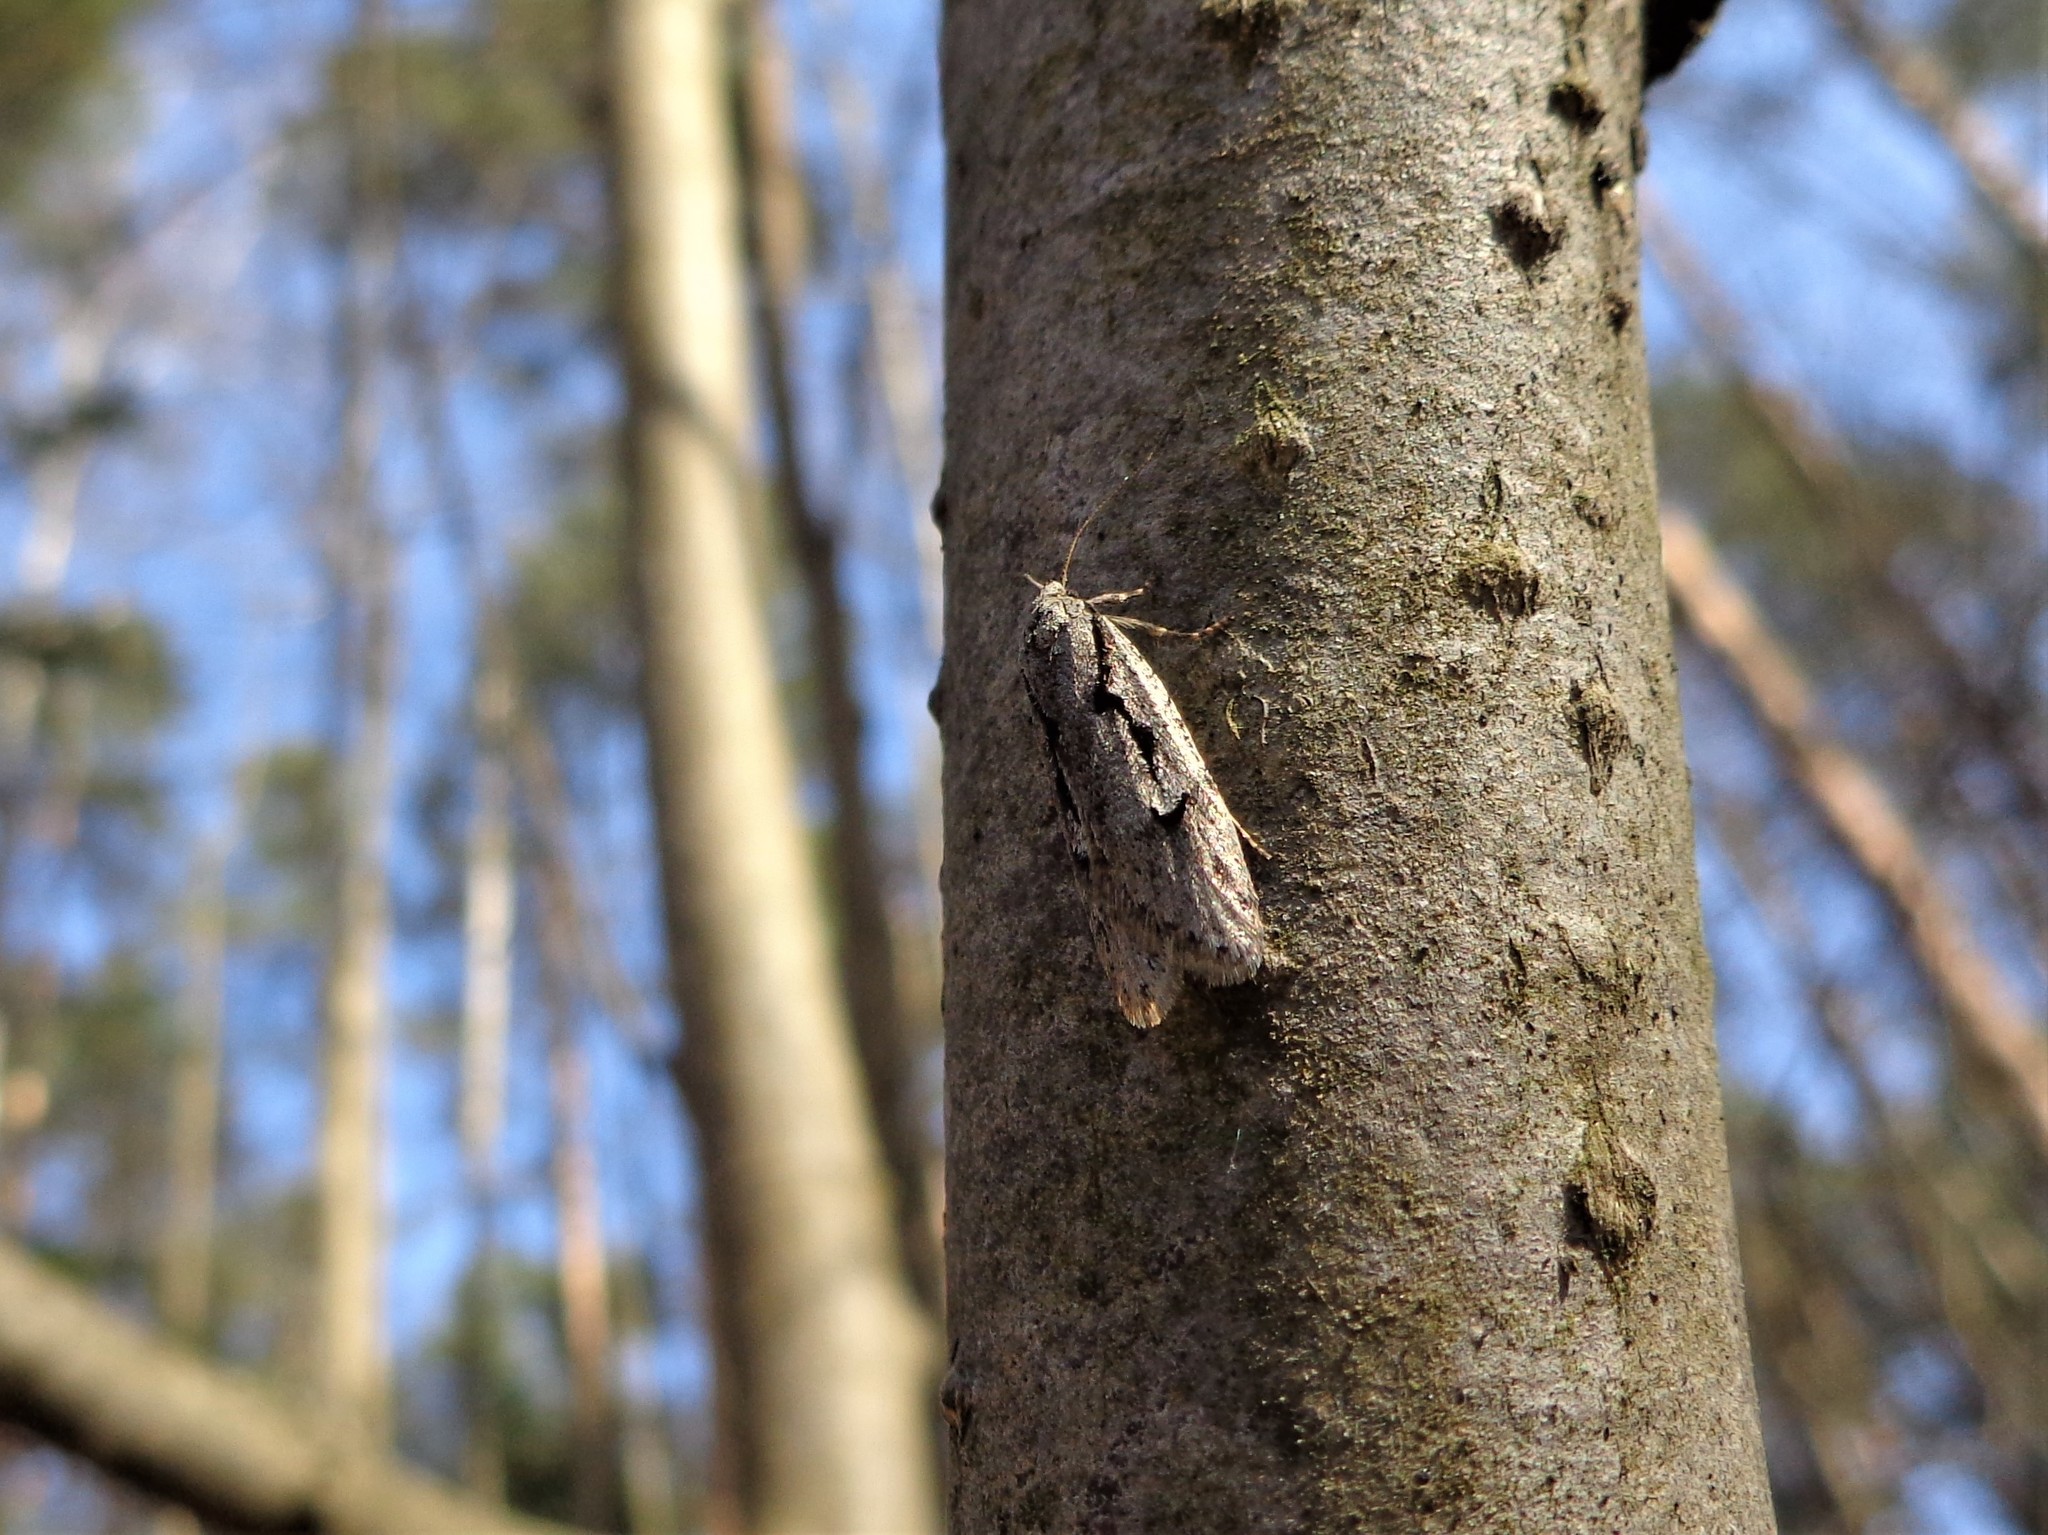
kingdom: Animalia
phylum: Arthropoda
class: Insecta
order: Lepidoptera
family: Depressariidae
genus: Semioscopis
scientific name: Semioscopis avellanella
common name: Early flat-body
